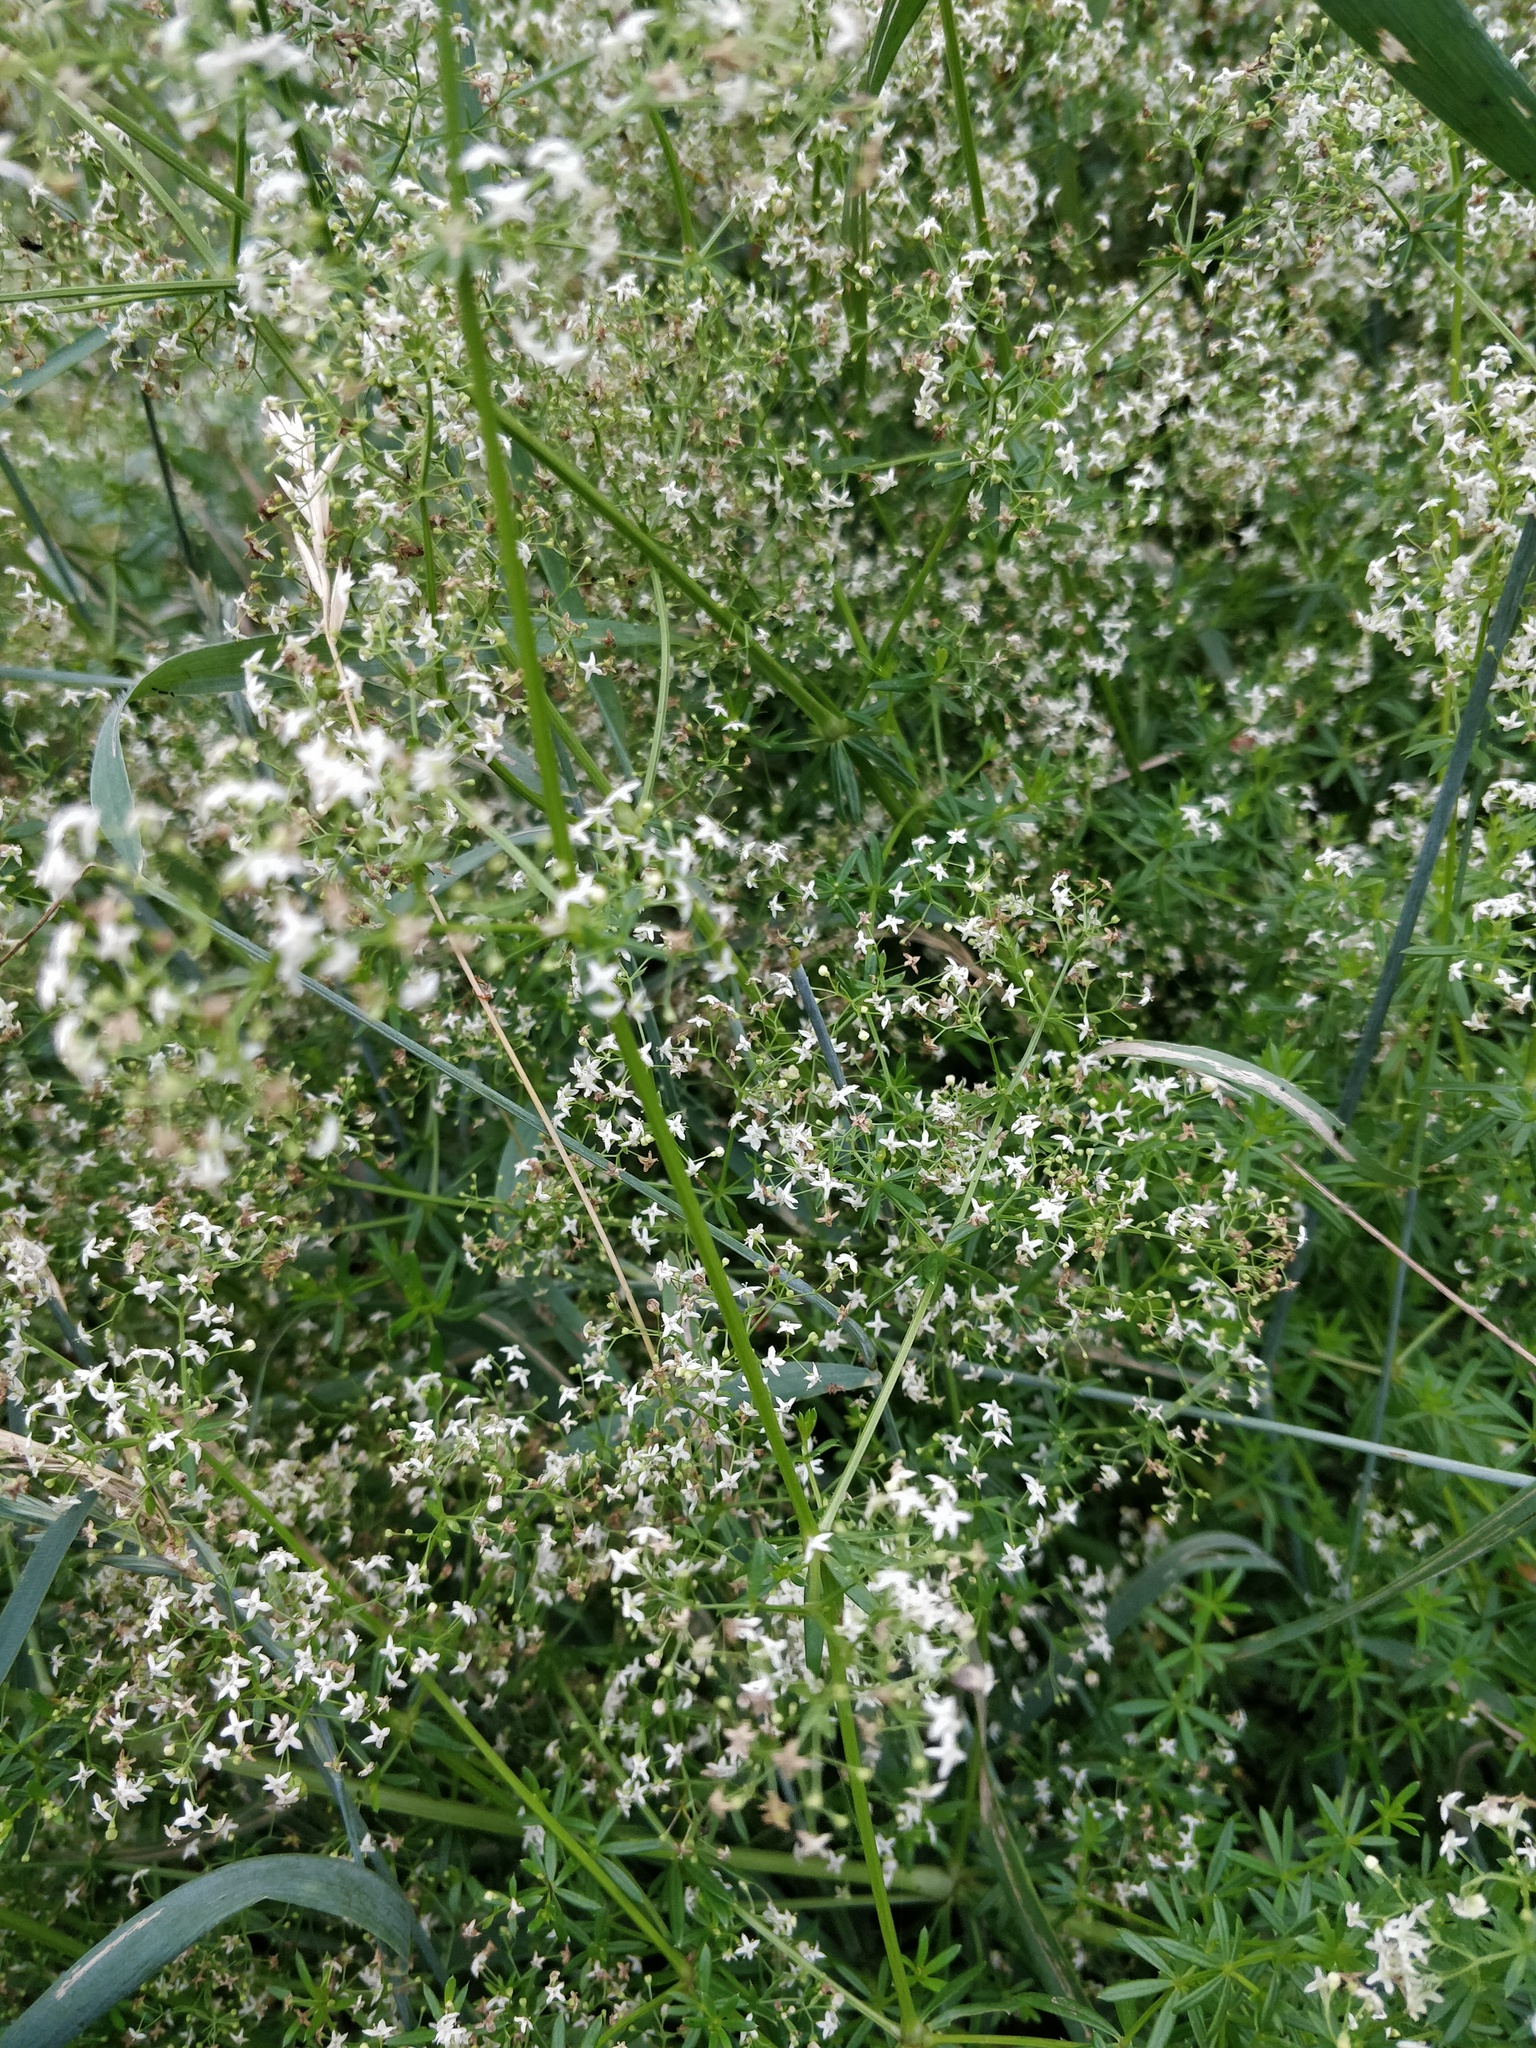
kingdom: Plantae
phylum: Tracheophyta
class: Magnoliopsida
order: Gentianales
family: Rubiaceae
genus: Galium
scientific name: Galium mollugo
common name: Hedge bedstraw
